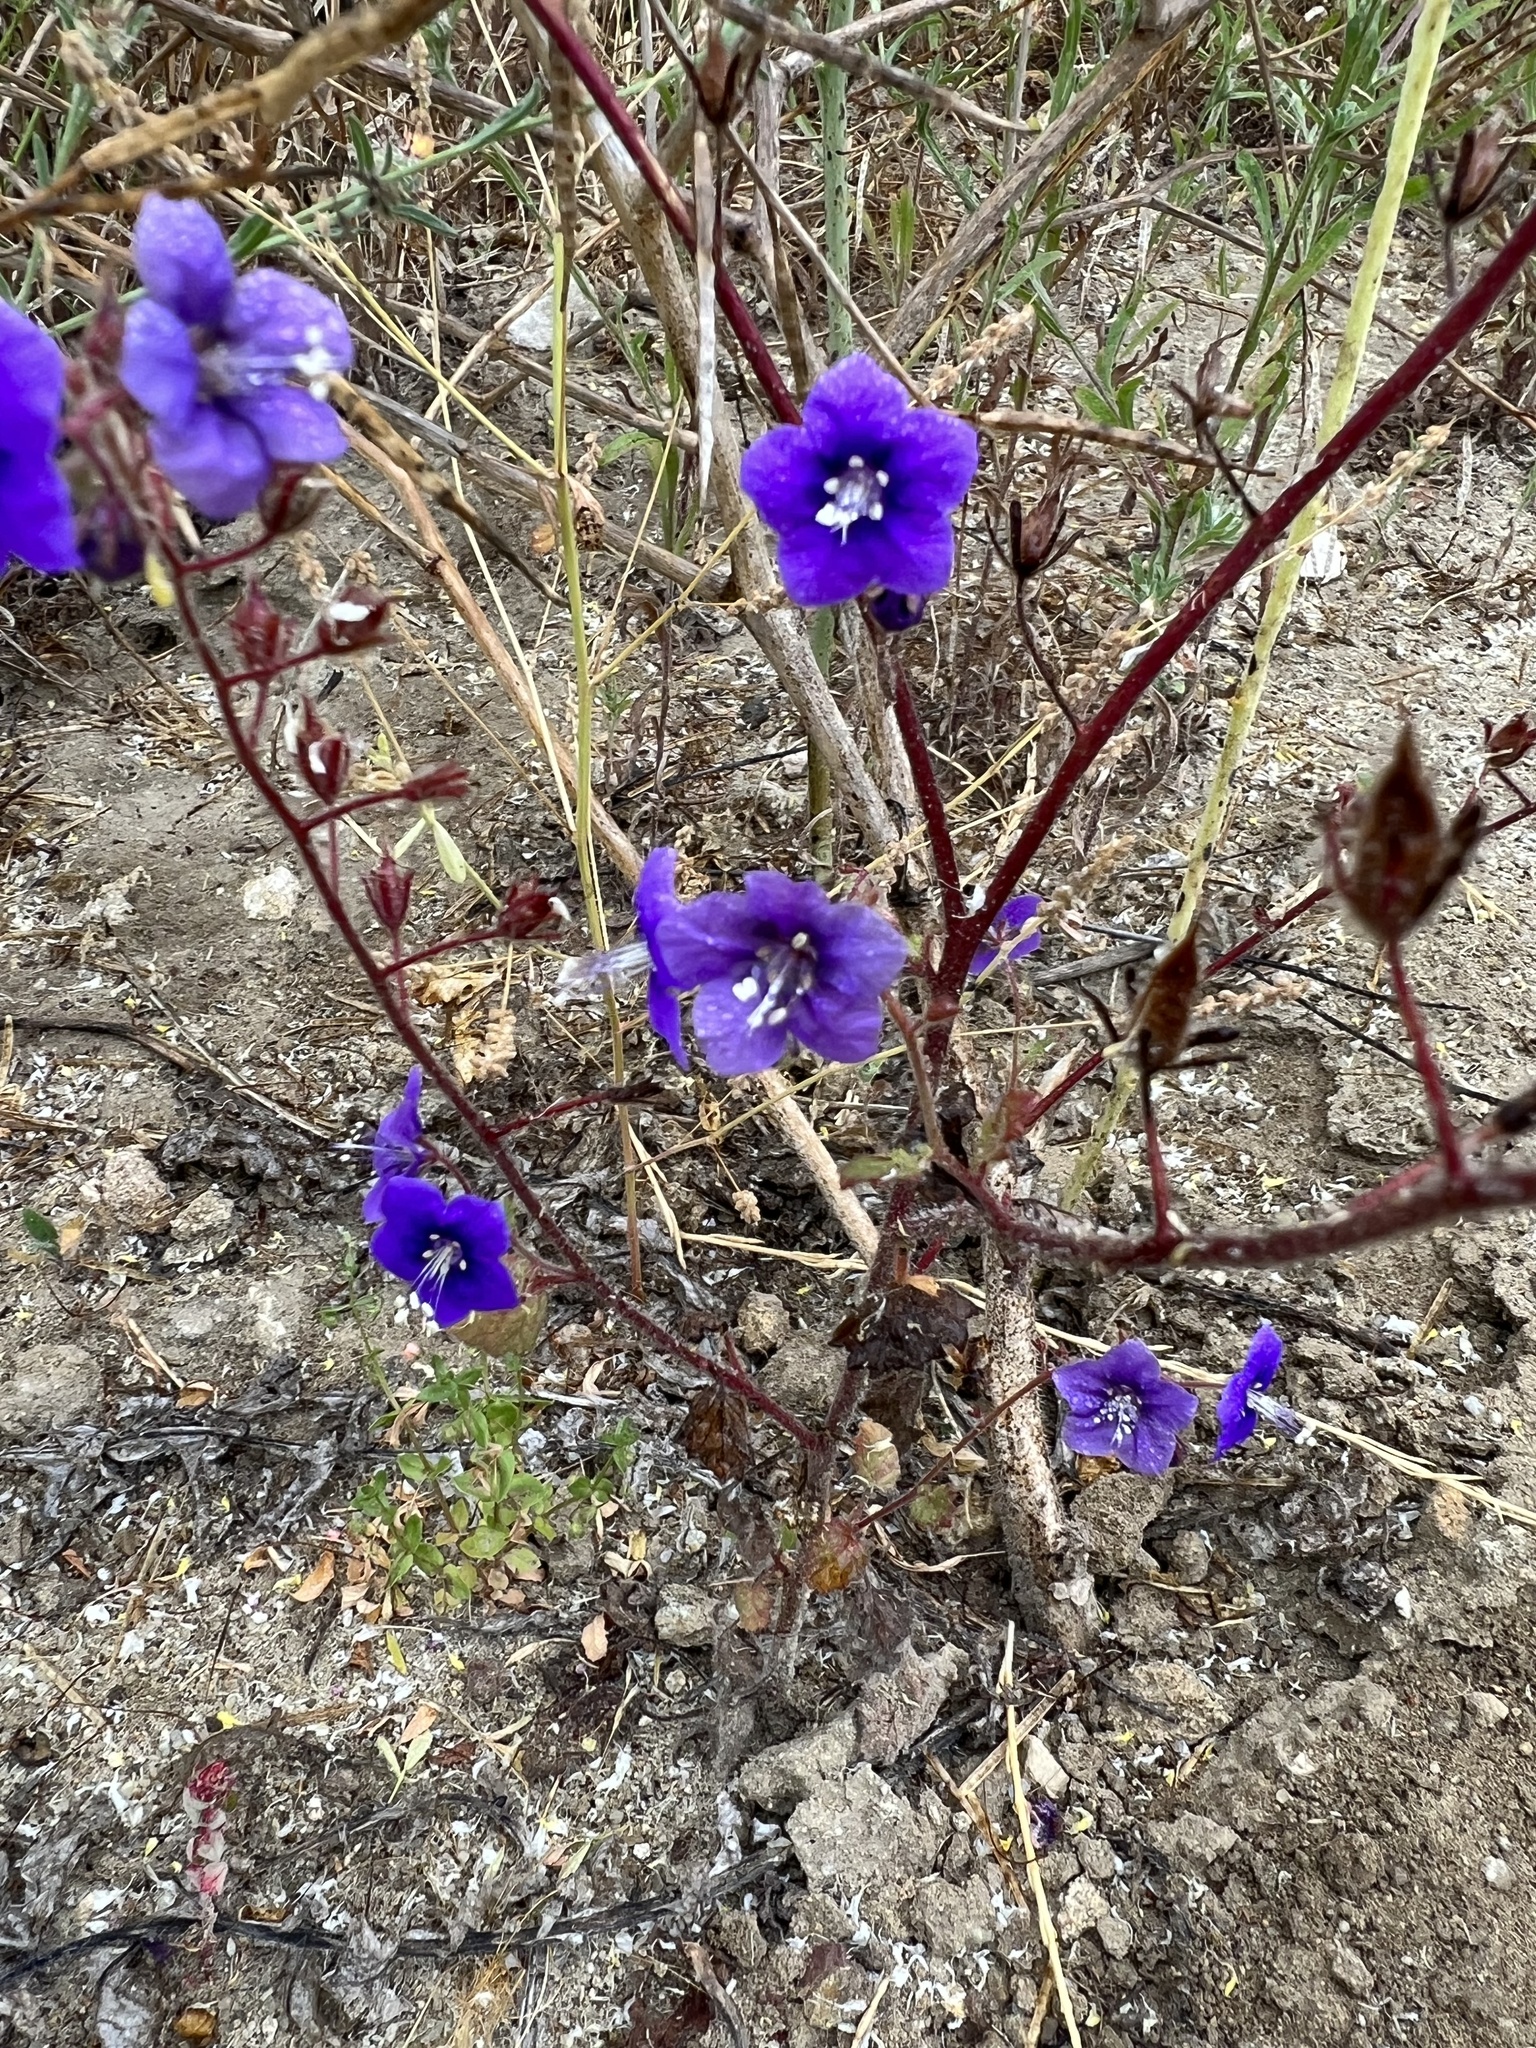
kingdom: Plantae
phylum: Tracheophyta
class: Magnoliopsida
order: Boraginales
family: Hydrophyllaceae
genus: Phacelia
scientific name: Phacelia parryi
